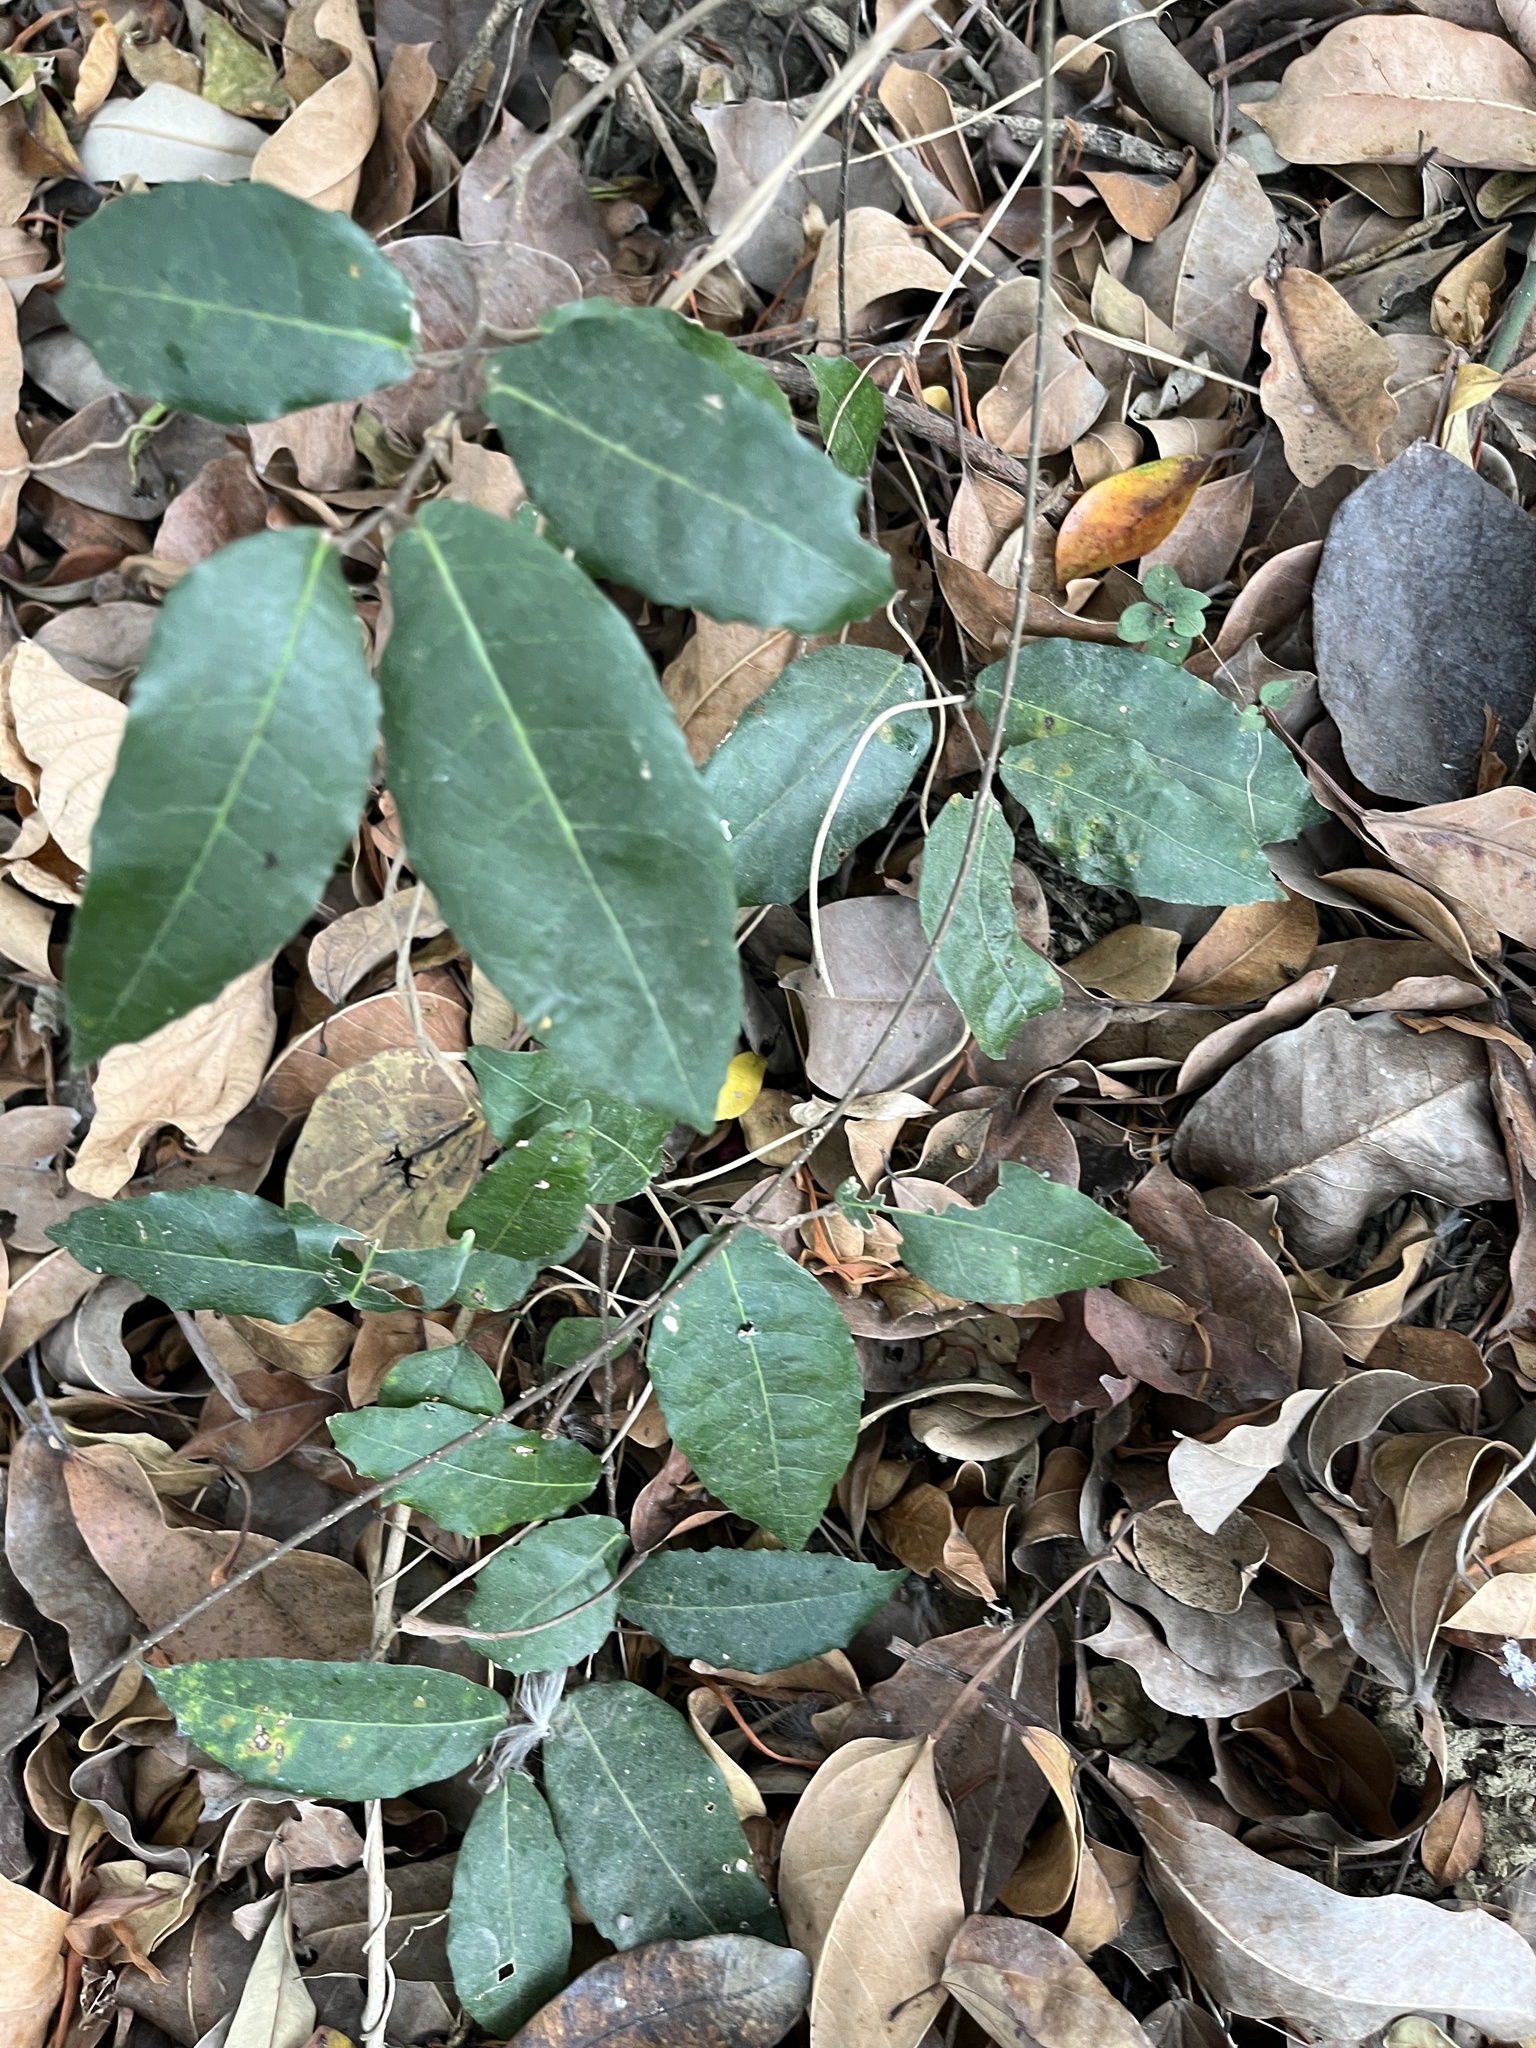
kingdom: Plantae
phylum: Tracheophyta
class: Magnoliopsida
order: Rosales
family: Moraceae
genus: Malaisia
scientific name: Malaisia scandens
